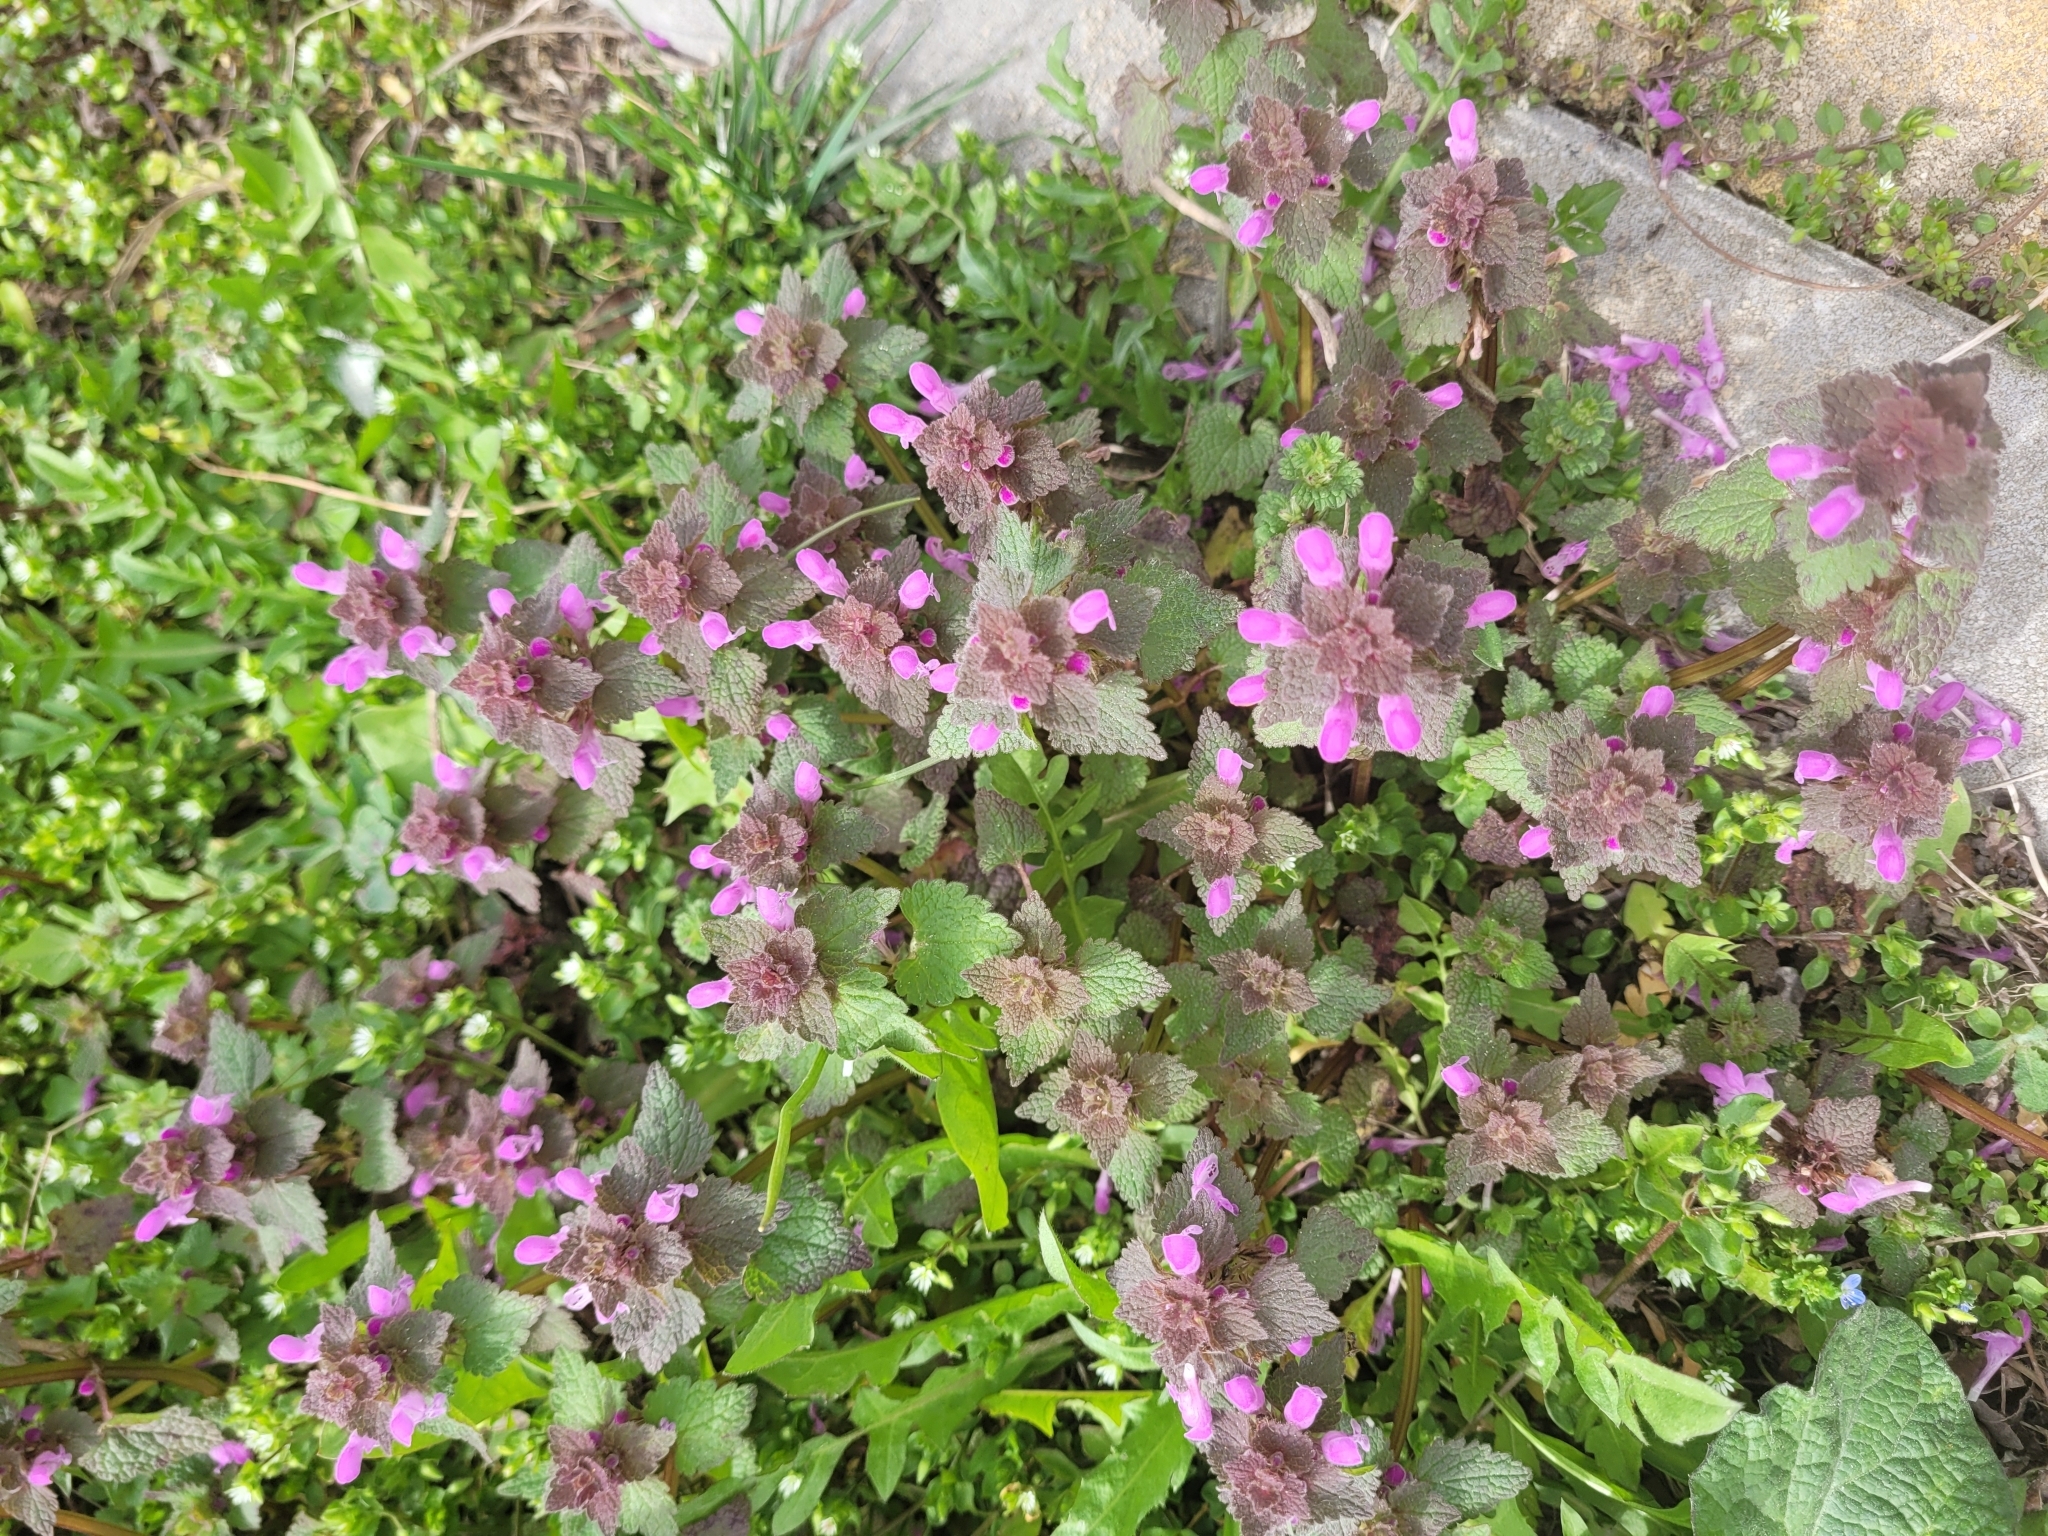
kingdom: Plantae
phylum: Tracheophyta
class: Magnoliopsida
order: Lamiales
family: Lamiaceae
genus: Lamium
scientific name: Lamium purpureum
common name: Red dead-nettle
